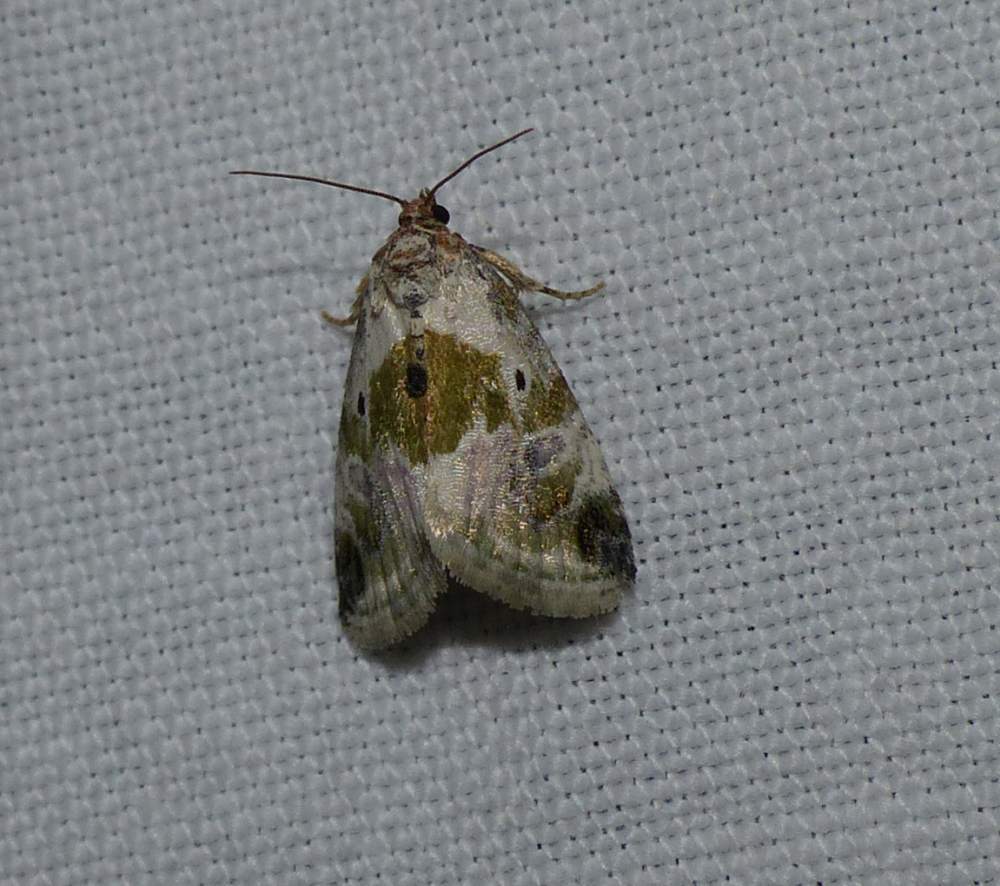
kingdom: Animalia
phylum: Arthropoda
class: Insecta
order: Lepidoptera
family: Noctuidae
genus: Maliattha
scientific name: Maliattha synochitis
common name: Black-dotted glyph
